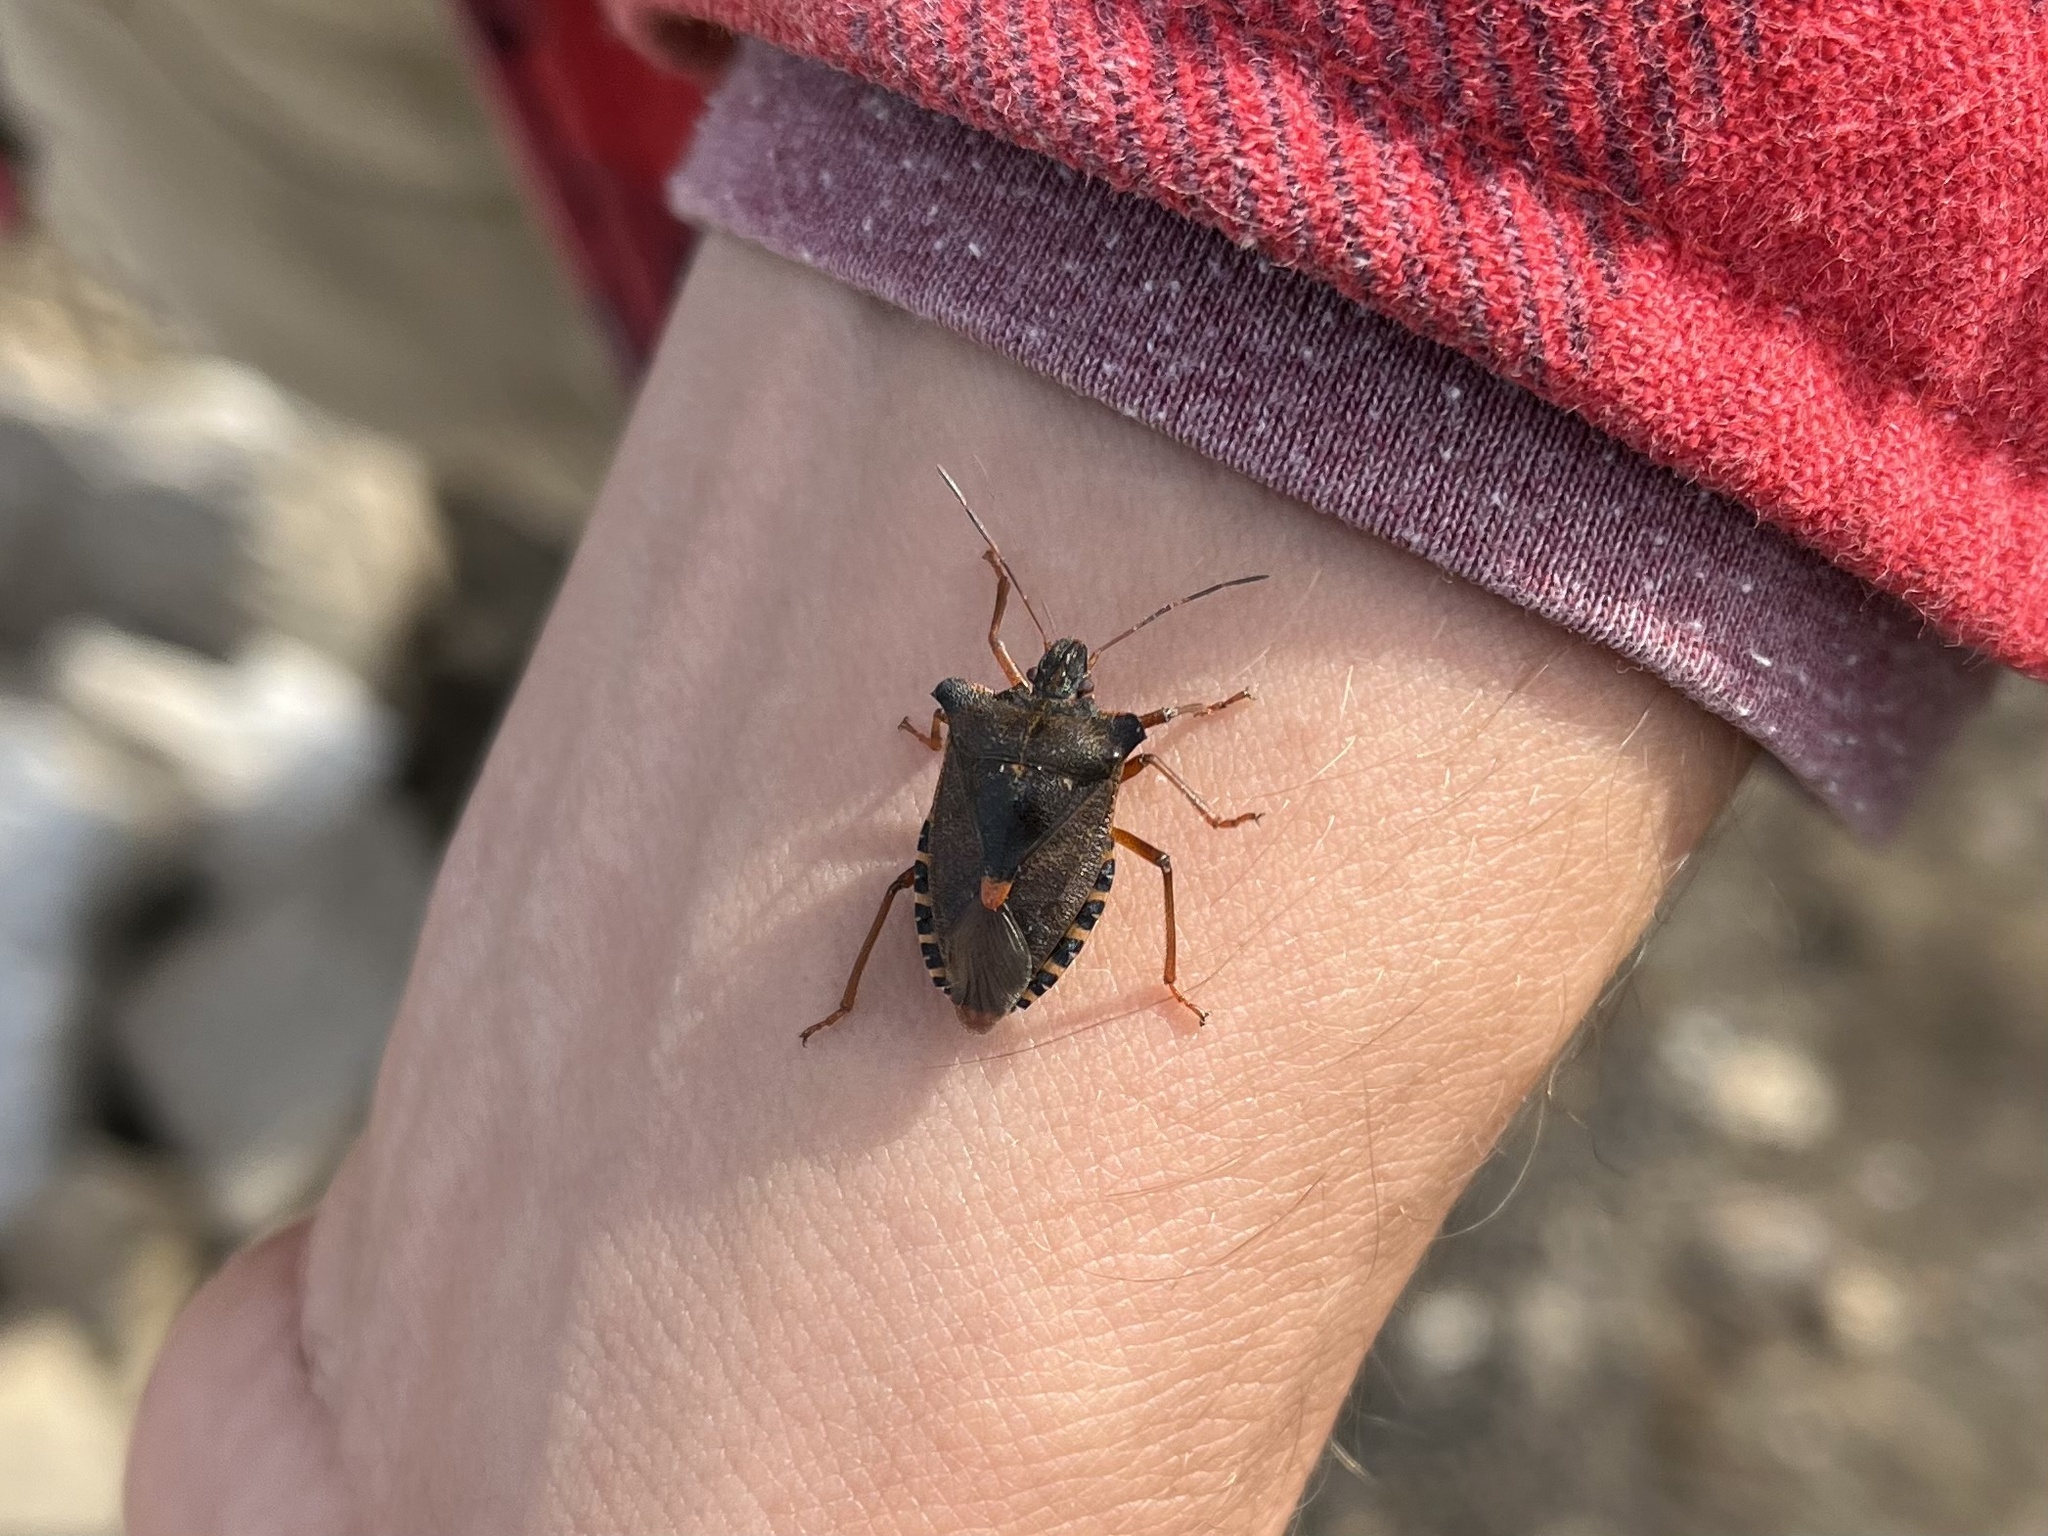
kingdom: Animalia
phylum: Arthropoda
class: Insecta
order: Hemiptera
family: Pentatomidae
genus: Pentatoma
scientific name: Pentatoma rufipes
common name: Forest bug
